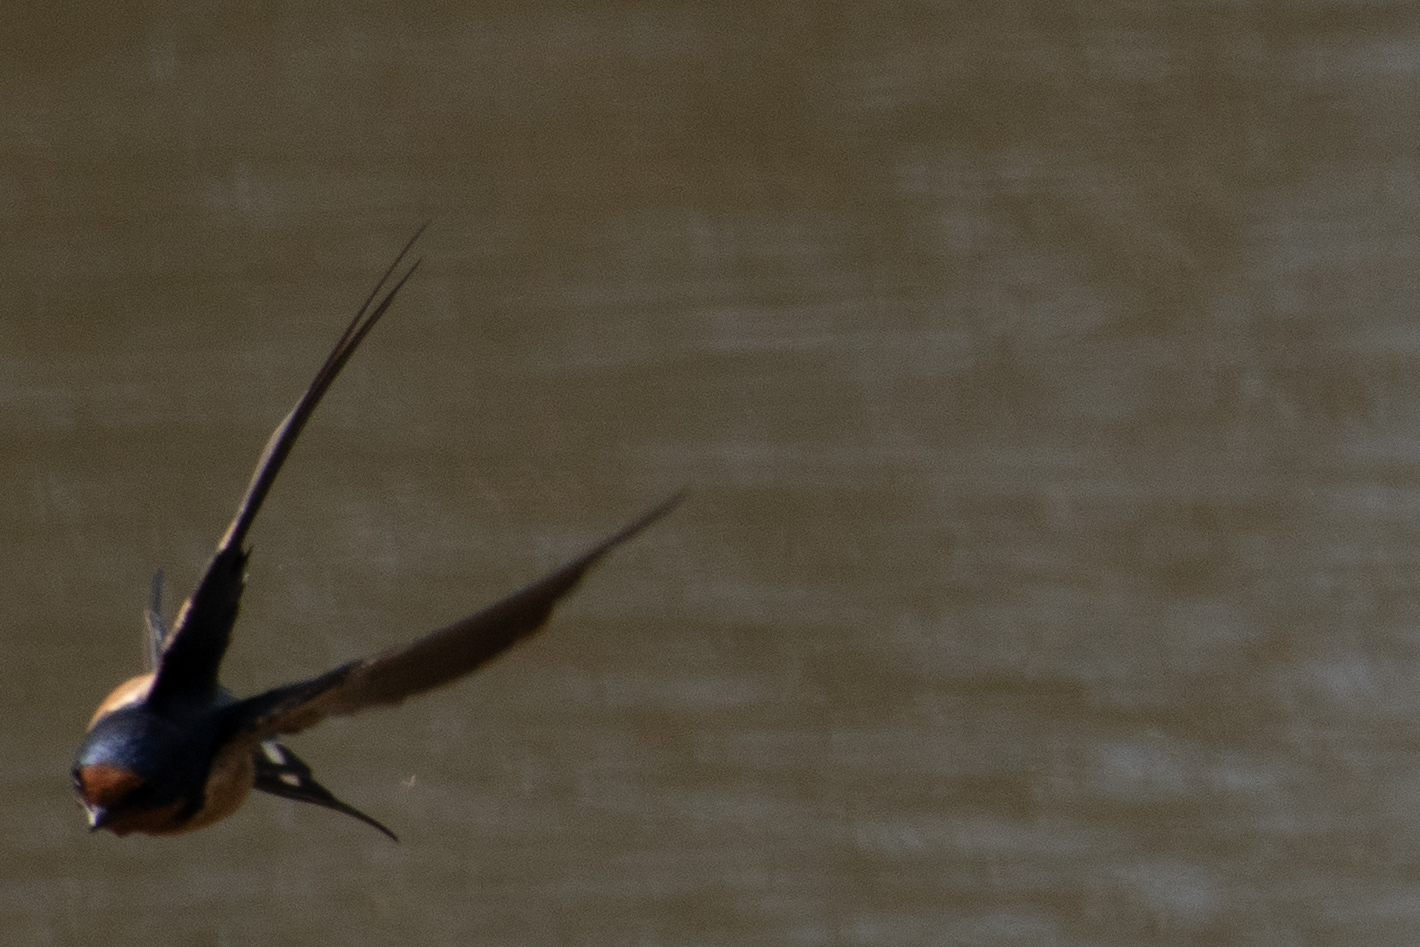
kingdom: Animalia
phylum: Chordata
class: Aves
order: Passeriformes
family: Hirundinidae
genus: Hirundo
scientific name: Hirundo rustica
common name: Barn swallow
